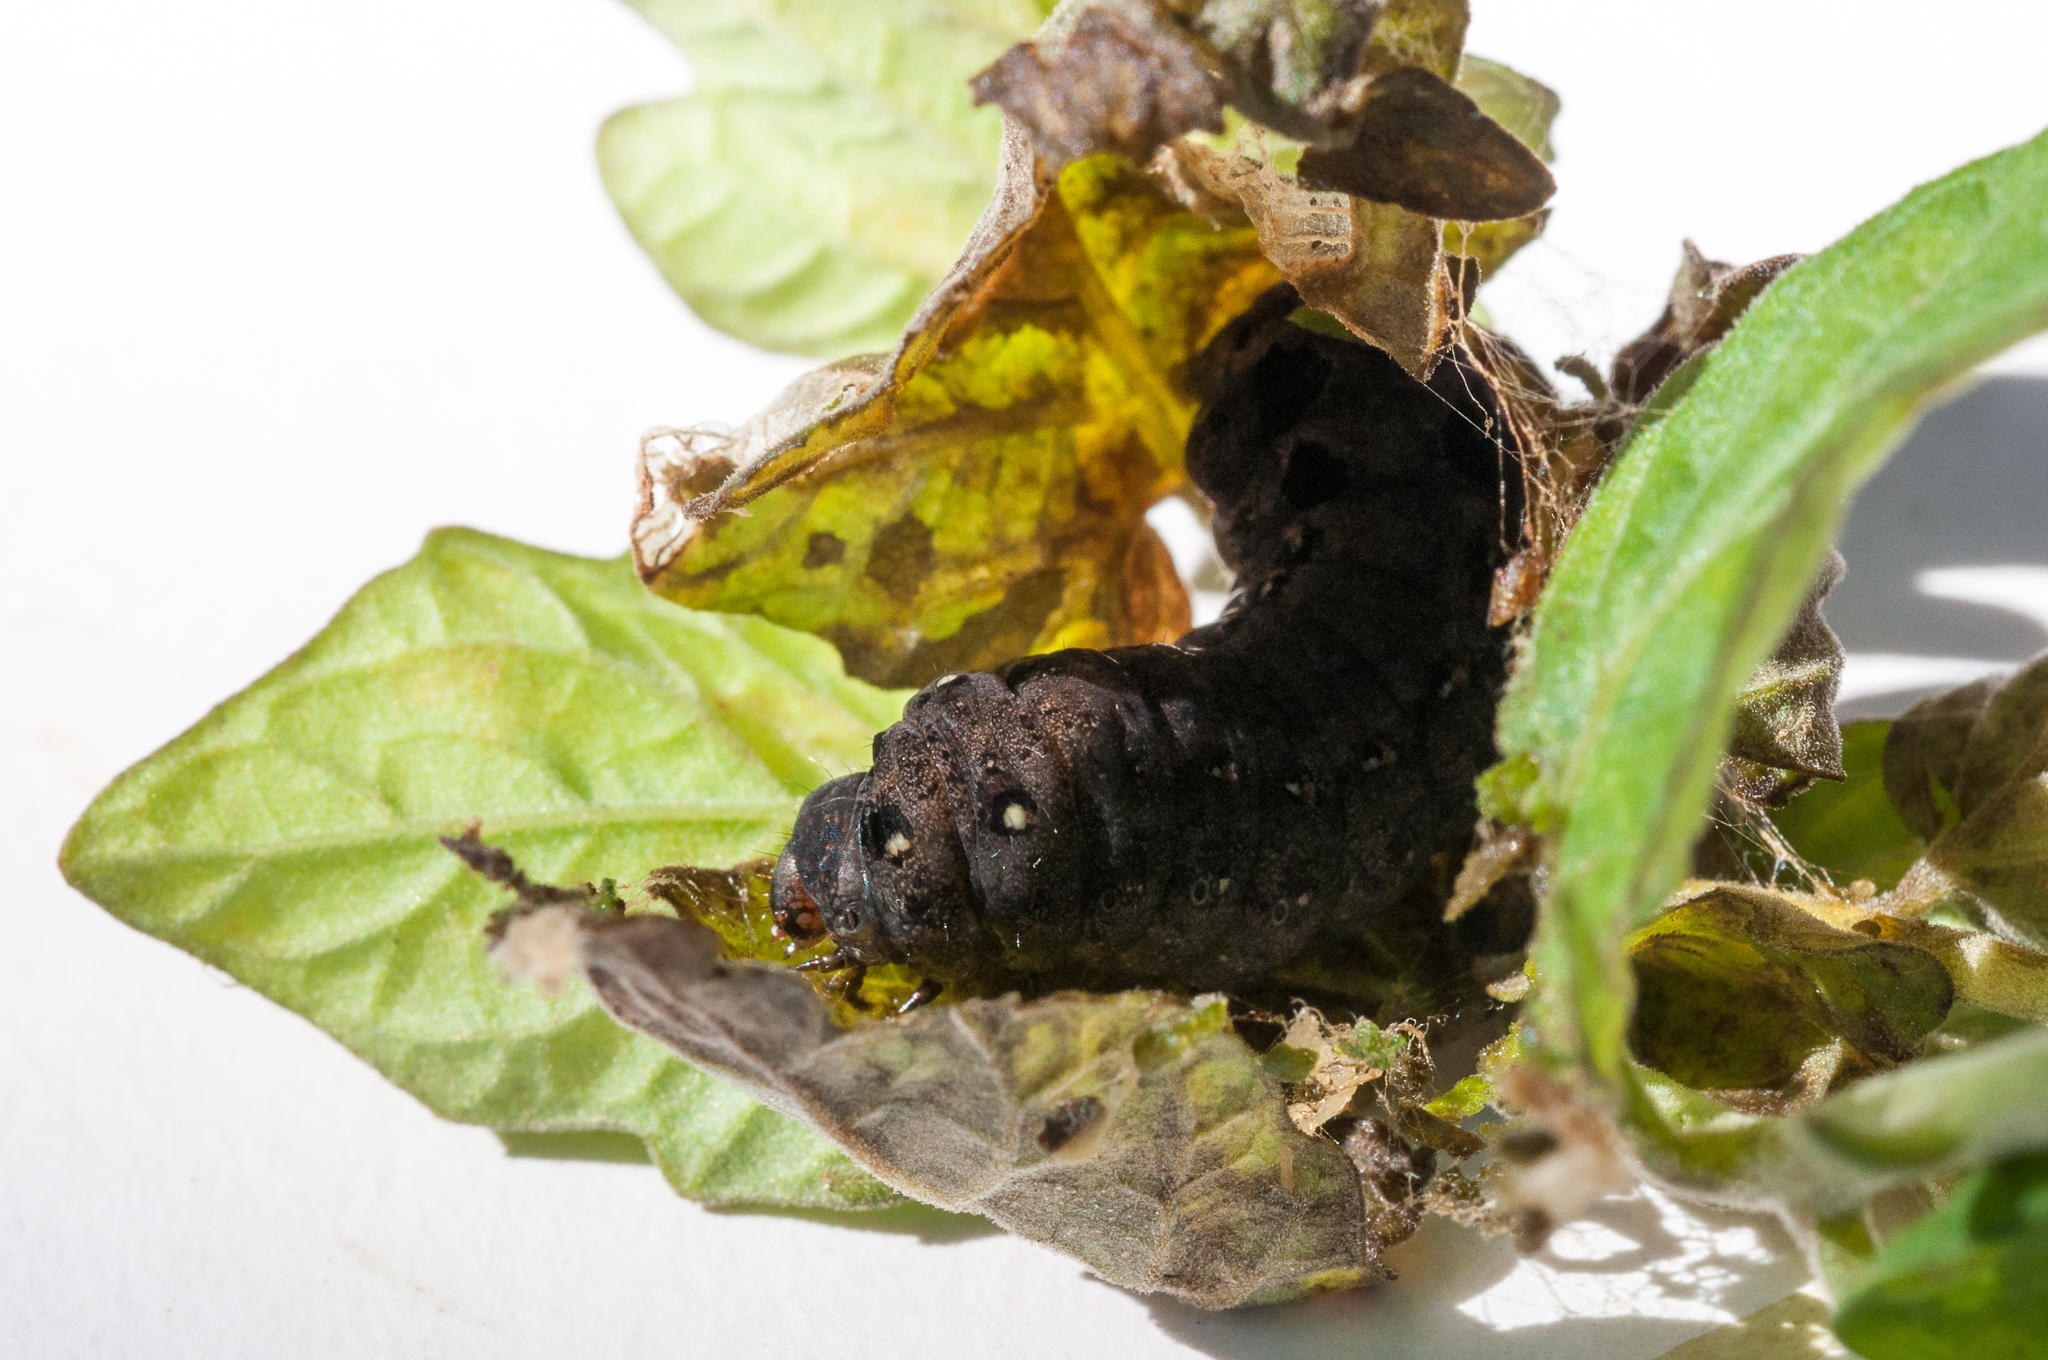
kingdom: Animalia
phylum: Arthropoda
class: Insecta
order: Lepidoptera
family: Noctuidae
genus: Spodoptera
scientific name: Spodoptera littoralis
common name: Egyptian cotton leafworm
